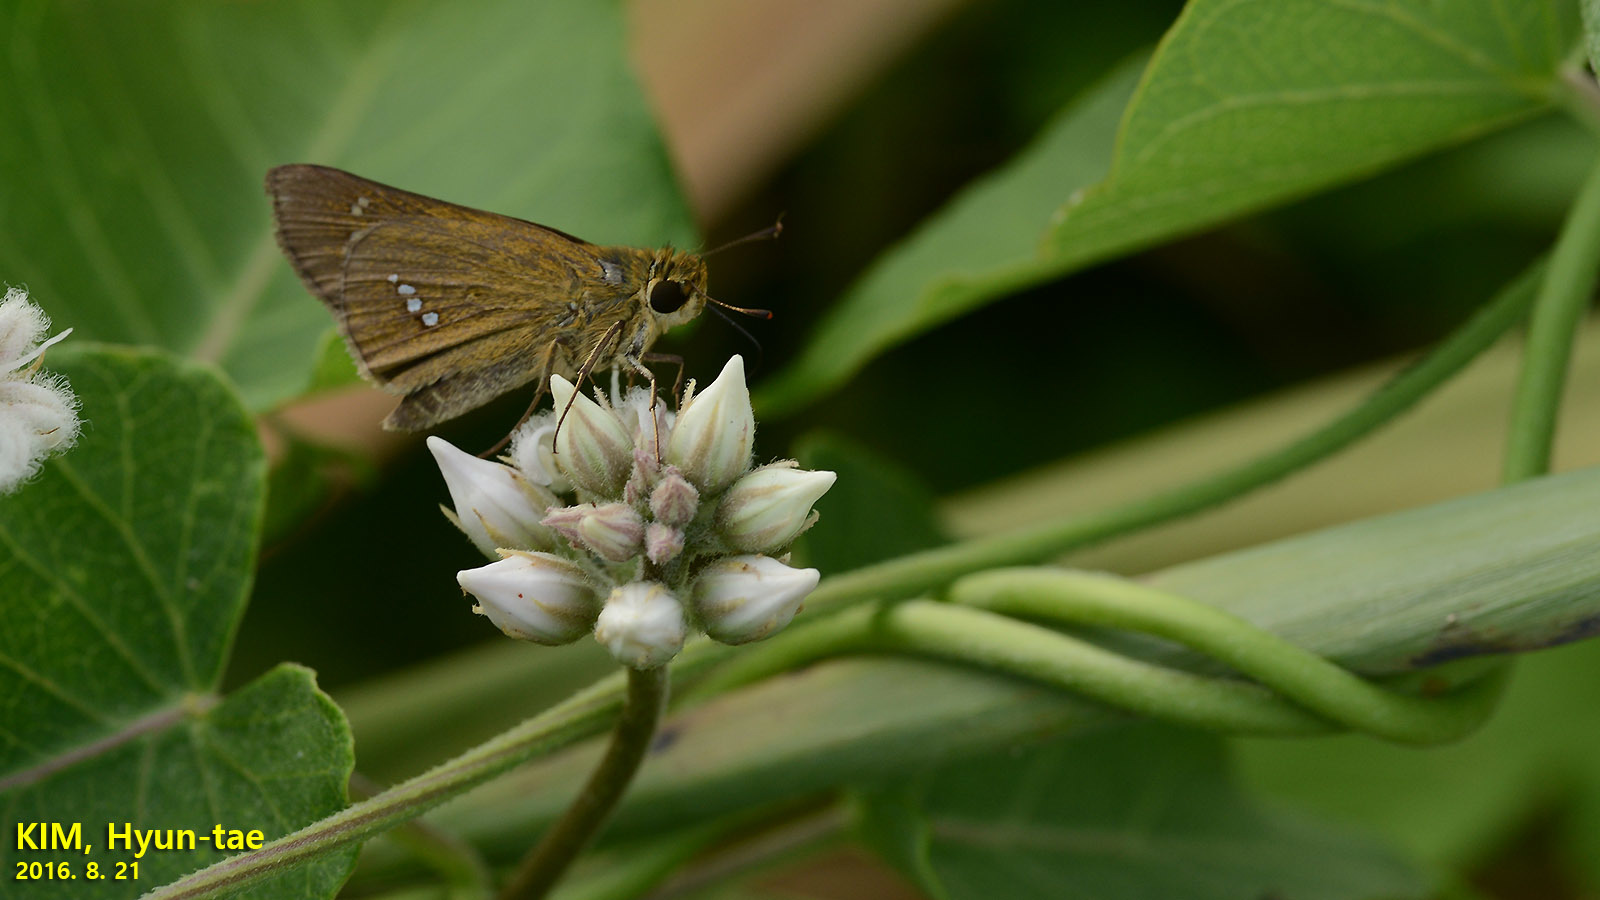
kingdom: Animalia
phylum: Arthropoda
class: Insecta
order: Lepidoptera
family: Hesperiidae
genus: Parnara
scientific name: Parnara guttatus
